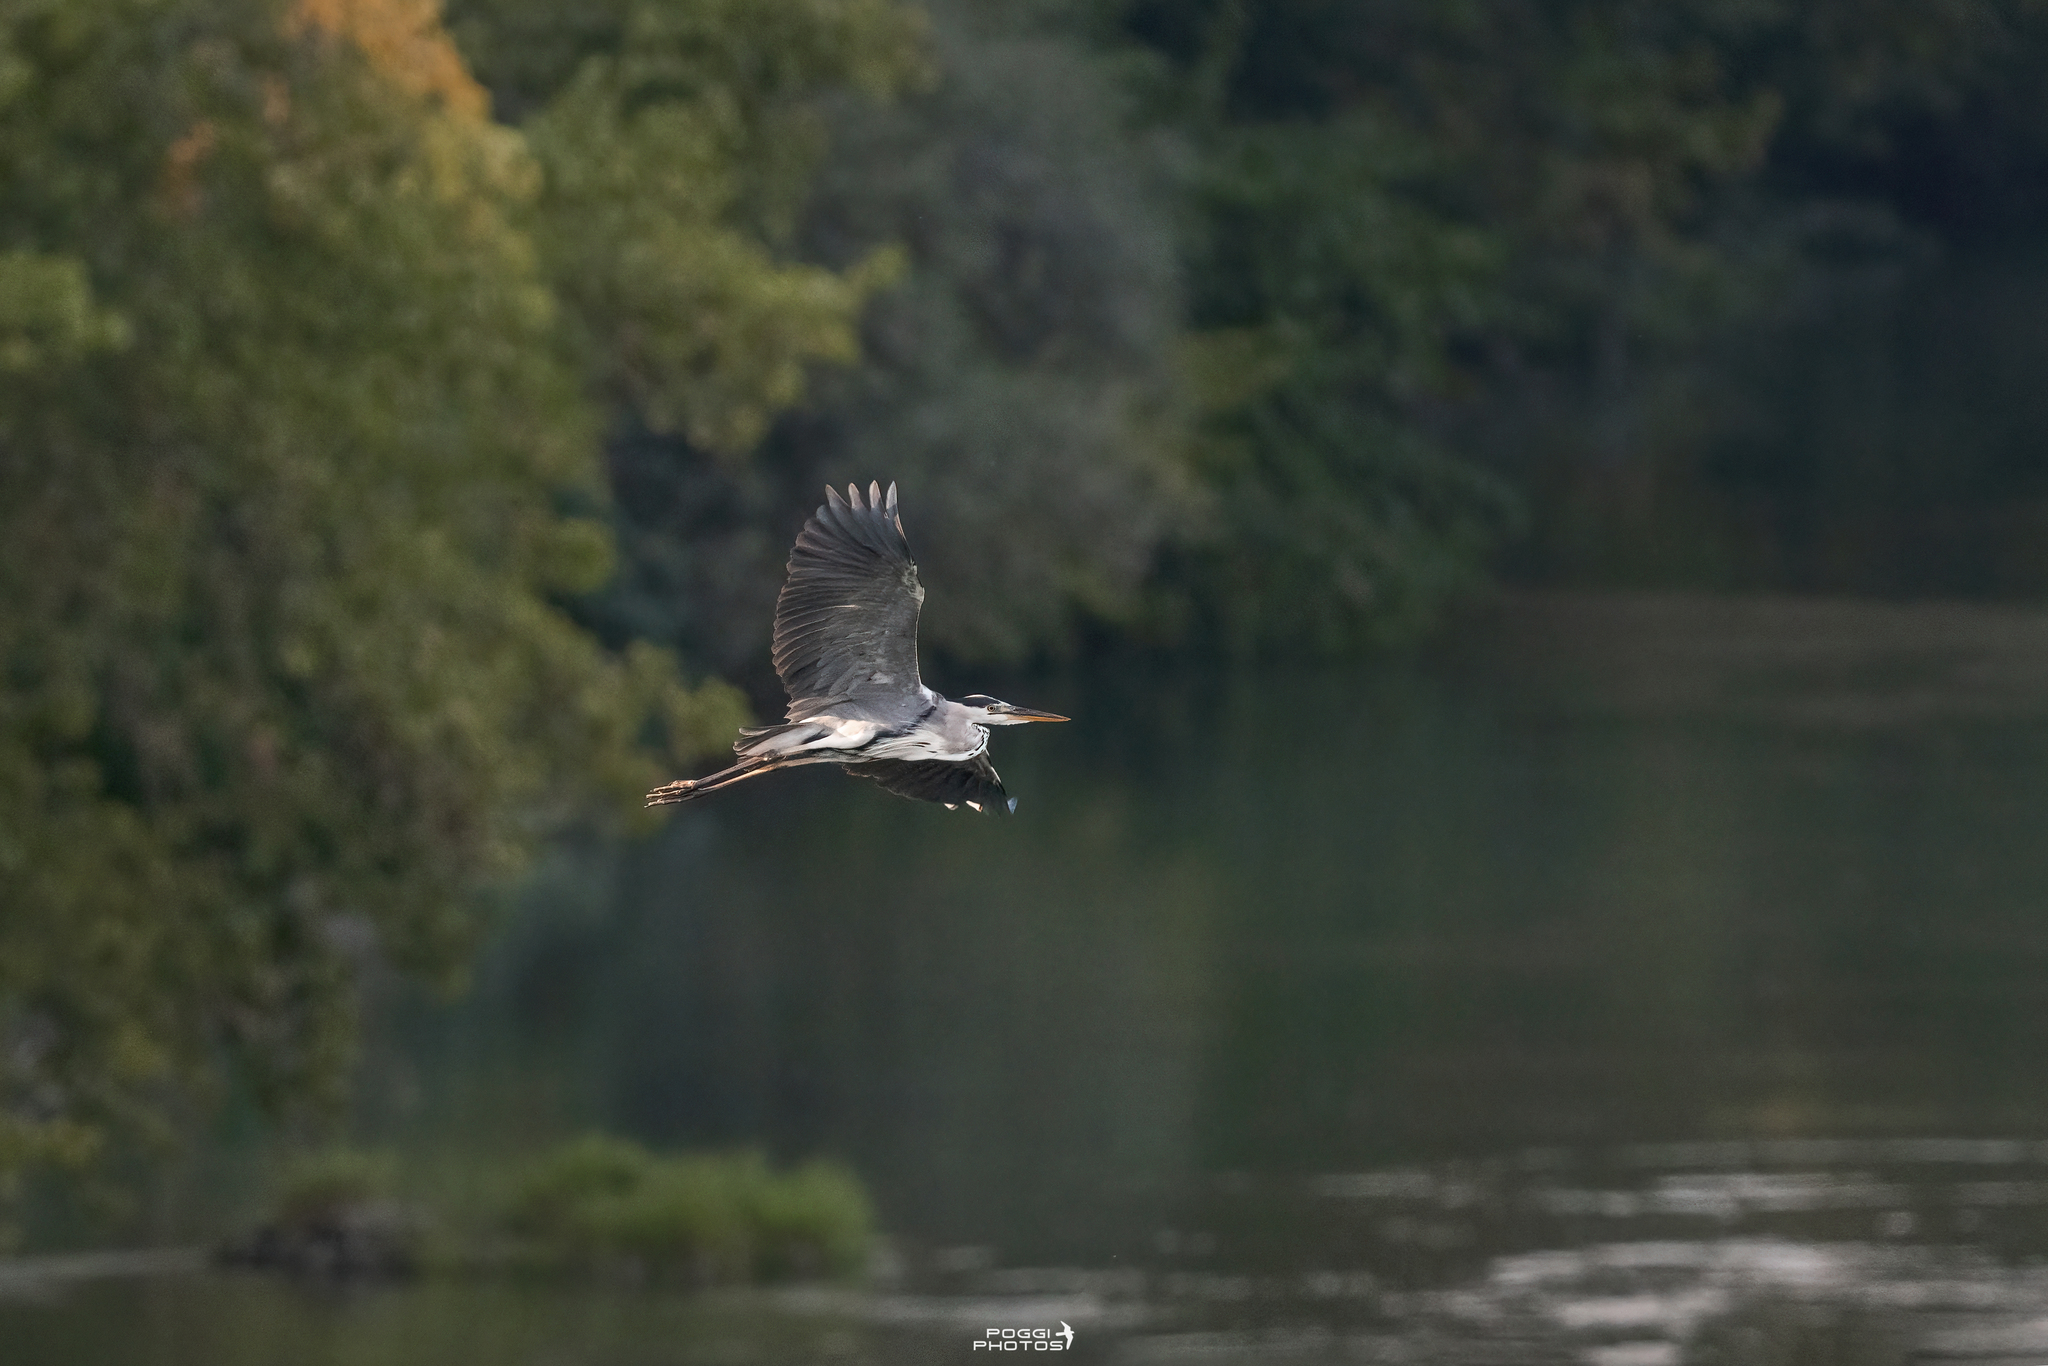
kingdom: Animalia
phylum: Chordata
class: Aves
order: Pelecaniformes
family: Ardeidae
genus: Ardea
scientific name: Ardea cinerea
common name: Grey heron
